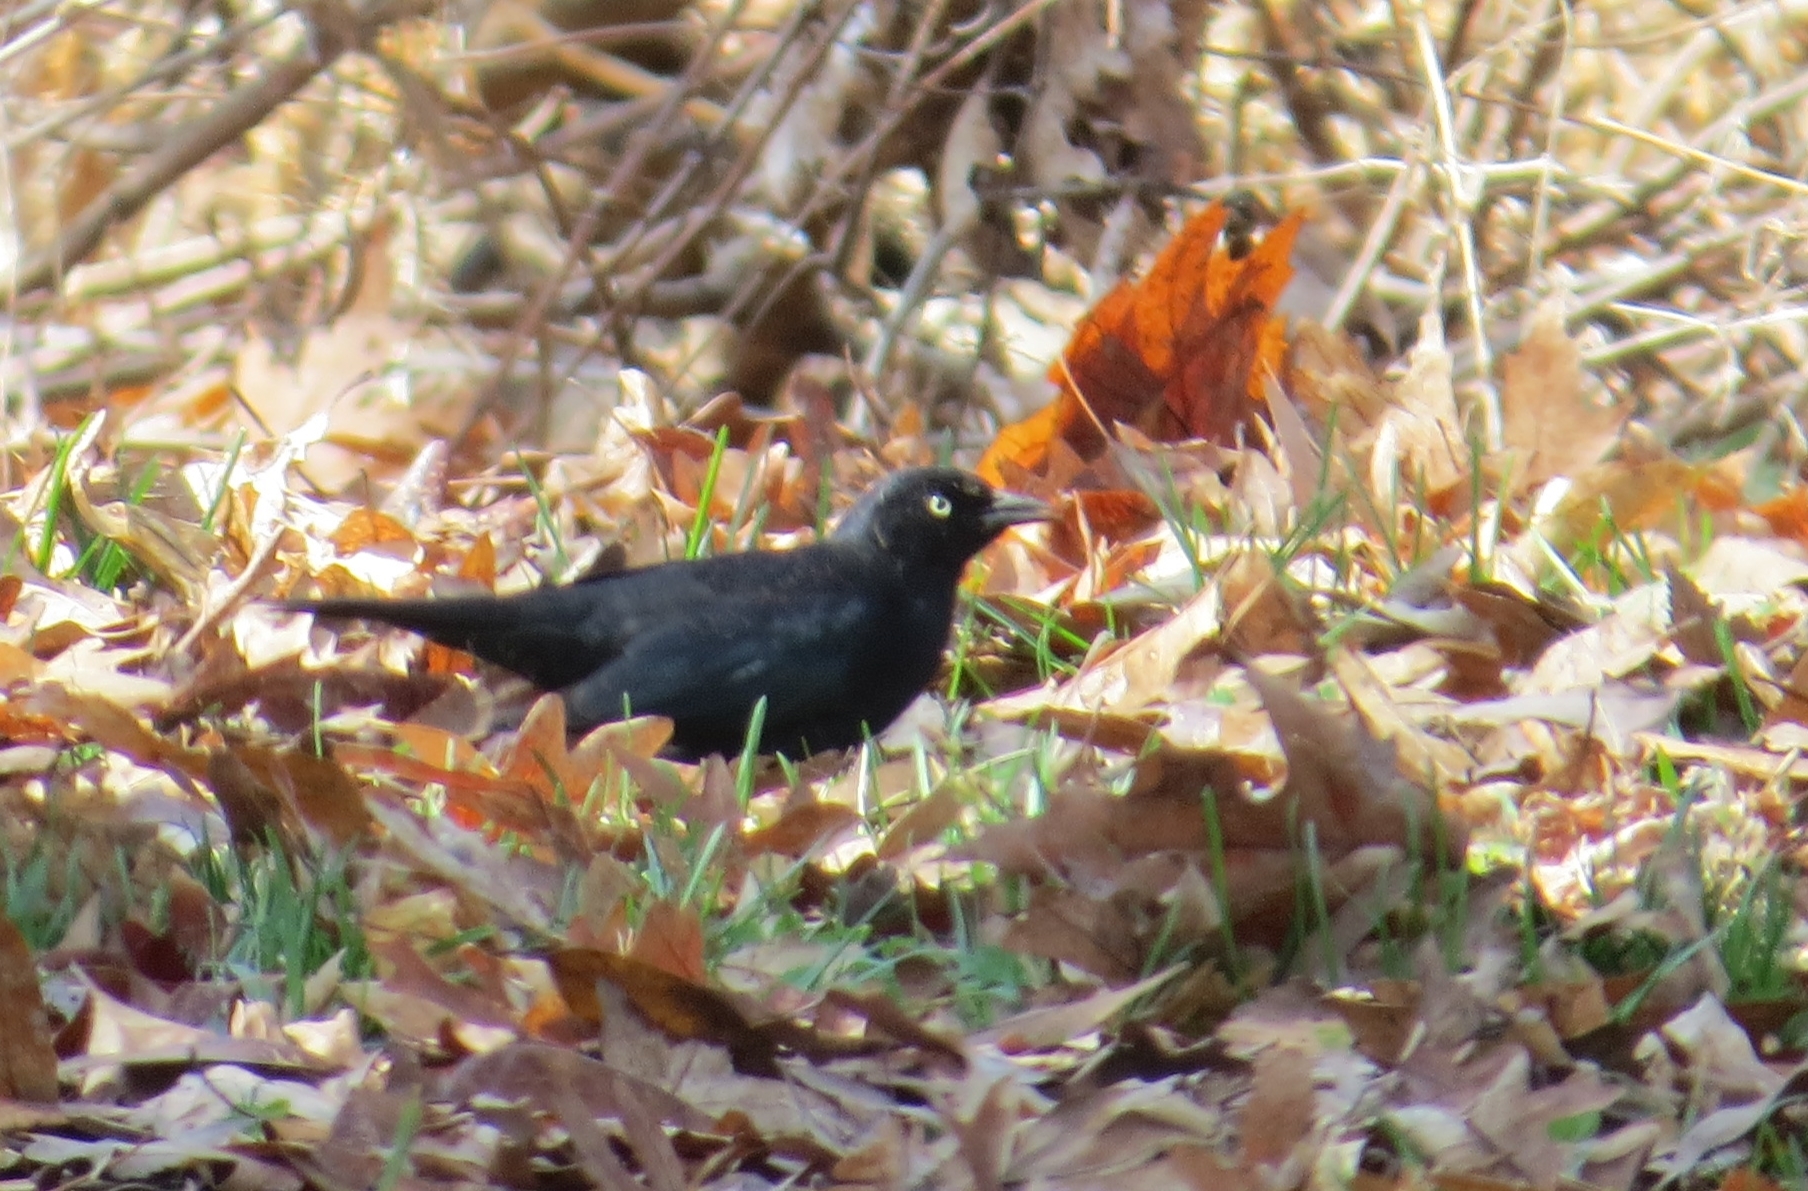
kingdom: Animalia
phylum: Chordata
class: Aves
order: Passeriformes
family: Icteridae
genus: Euphagus
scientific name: Euphagus carolinus
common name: Rusty blackbird
